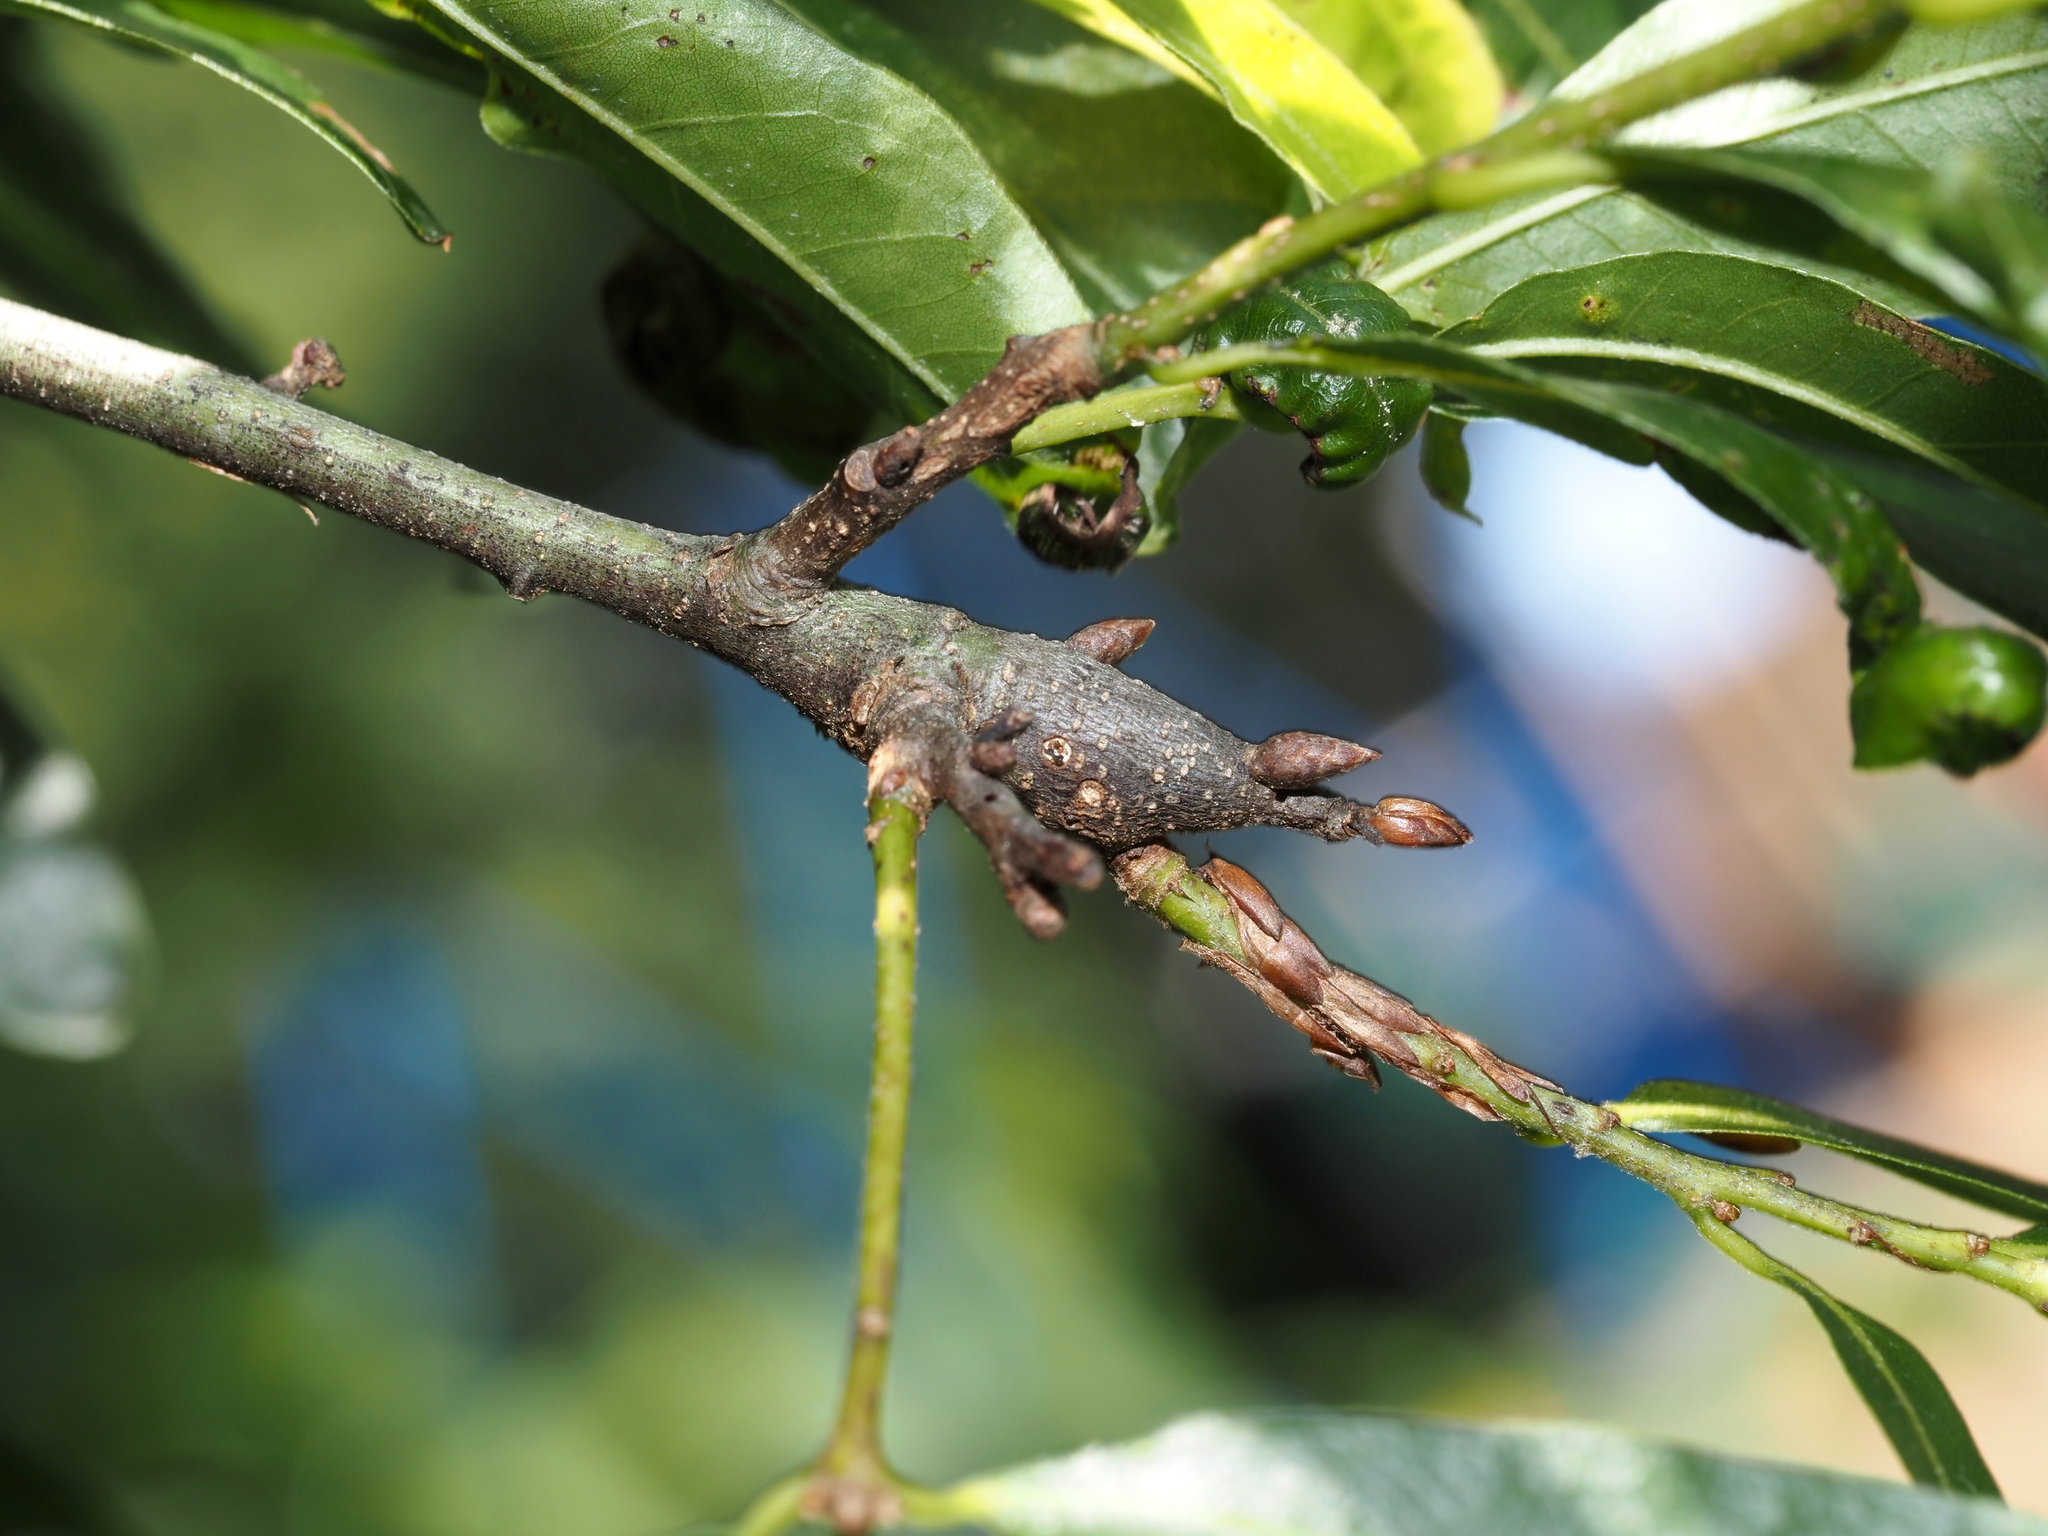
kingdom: Animalia
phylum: Arthropoda
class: Insecta
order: Hymenoptera
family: Cynipidae
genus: Zapatella
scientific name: Zapatella quercusphellos
